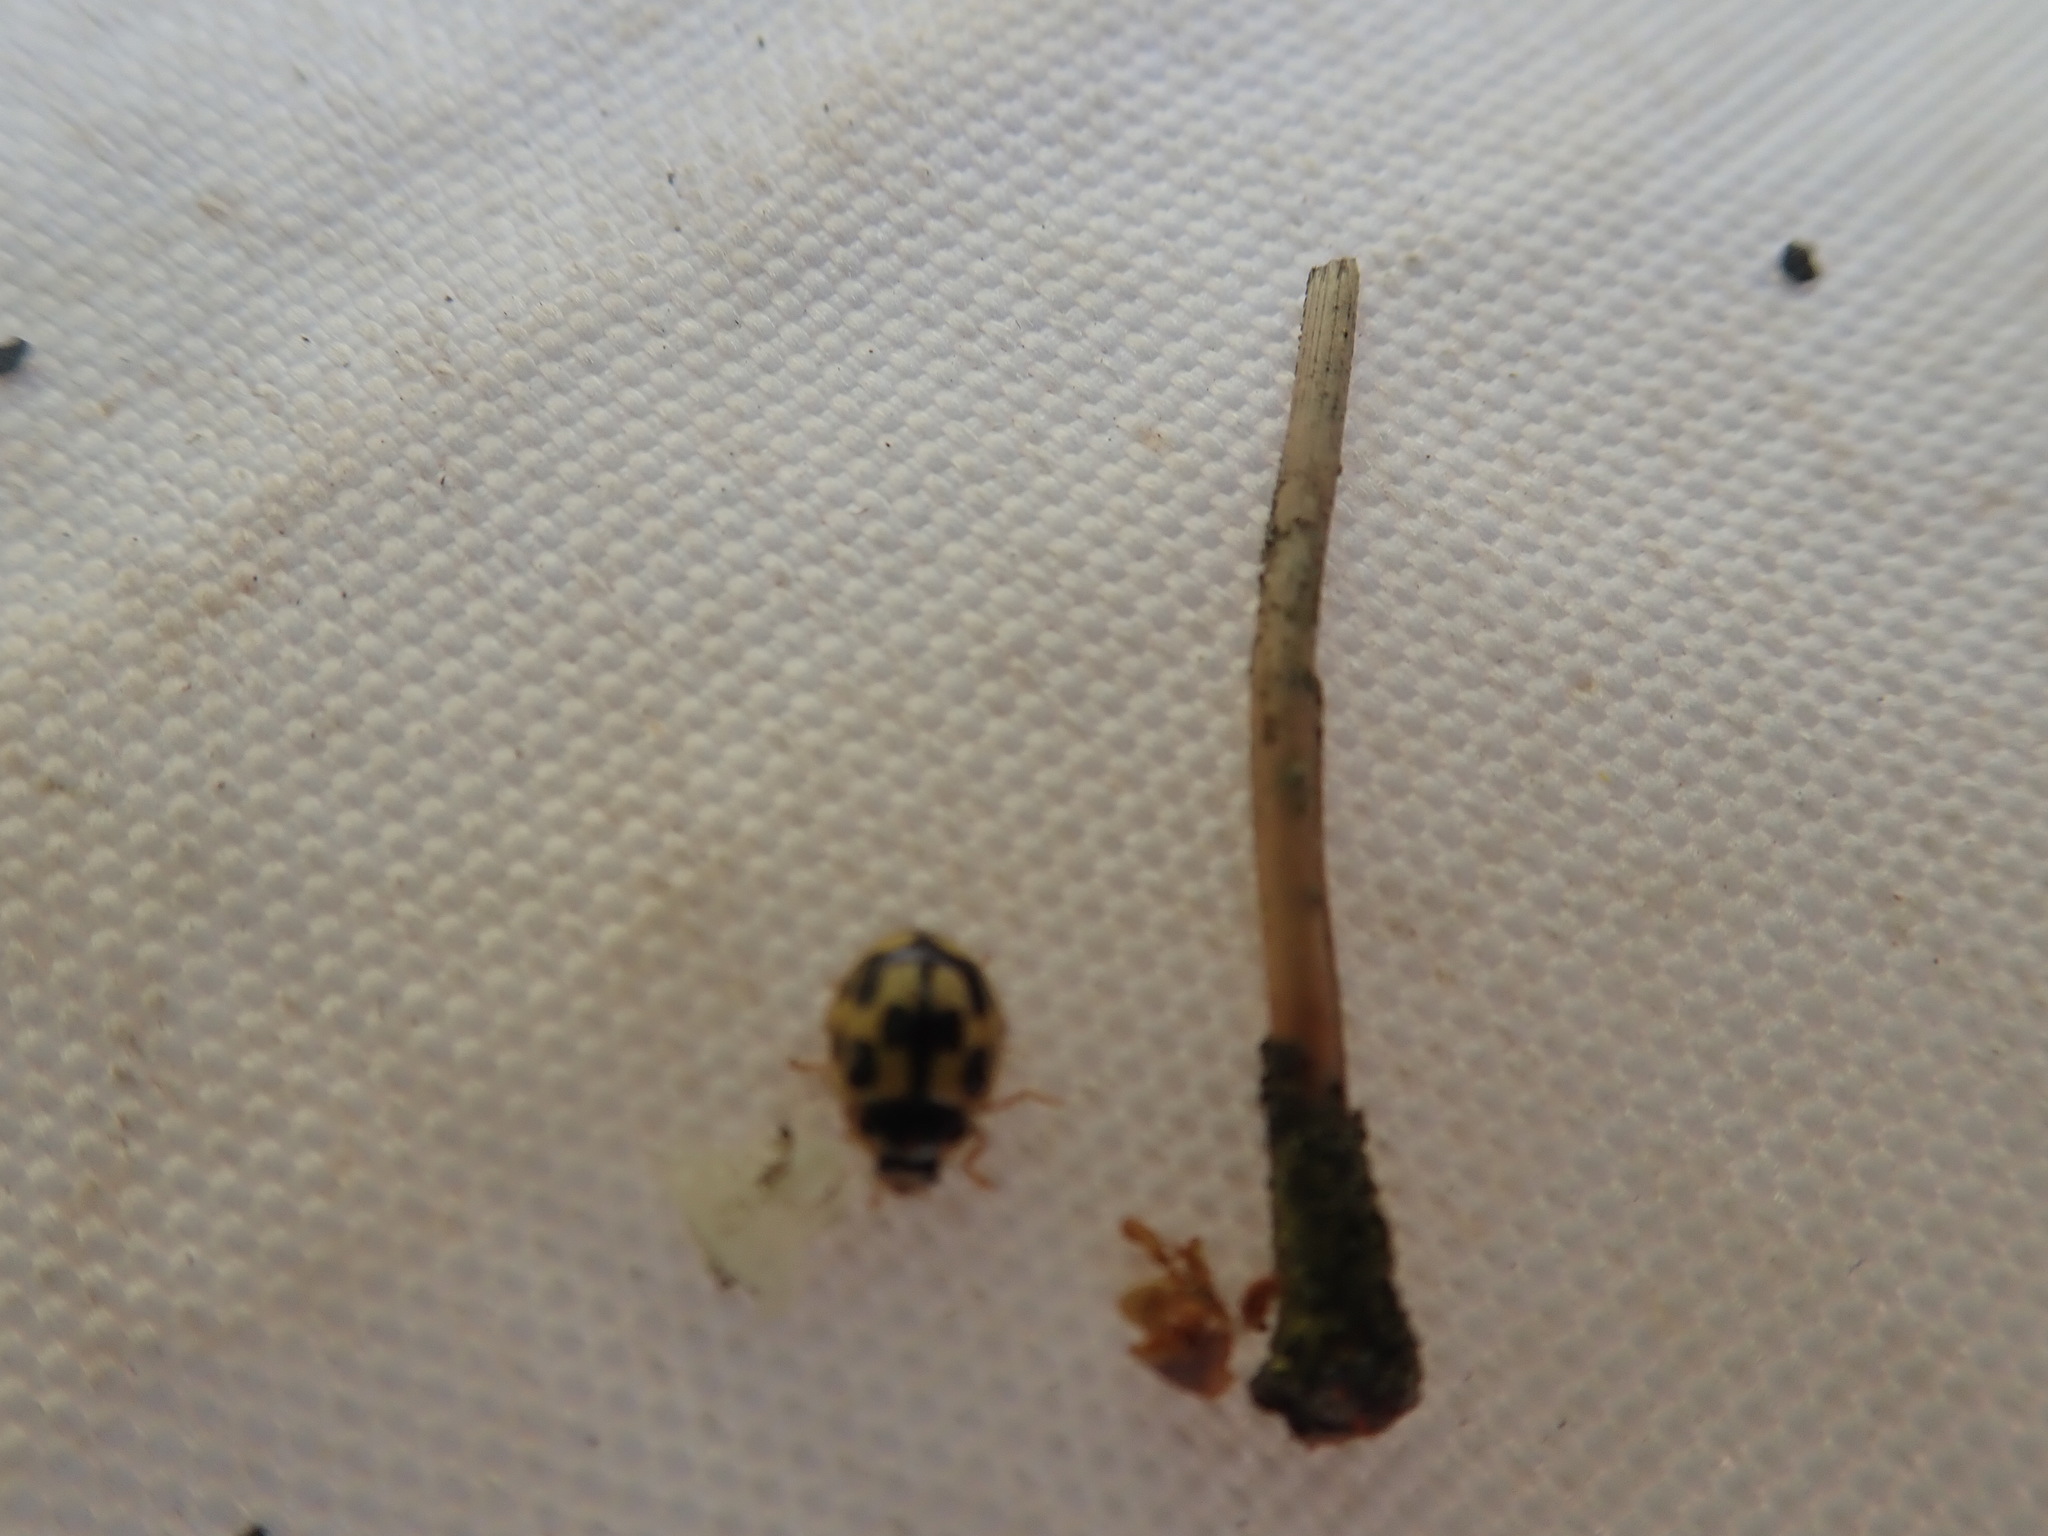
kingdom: Animalia
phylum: Arthropoda
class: Insecta
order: Coleoptera
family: Coccinellidae
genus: Propylaea
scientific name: Propylaea quatuordecimpunctata
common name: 14-spotted ladybird beetle
